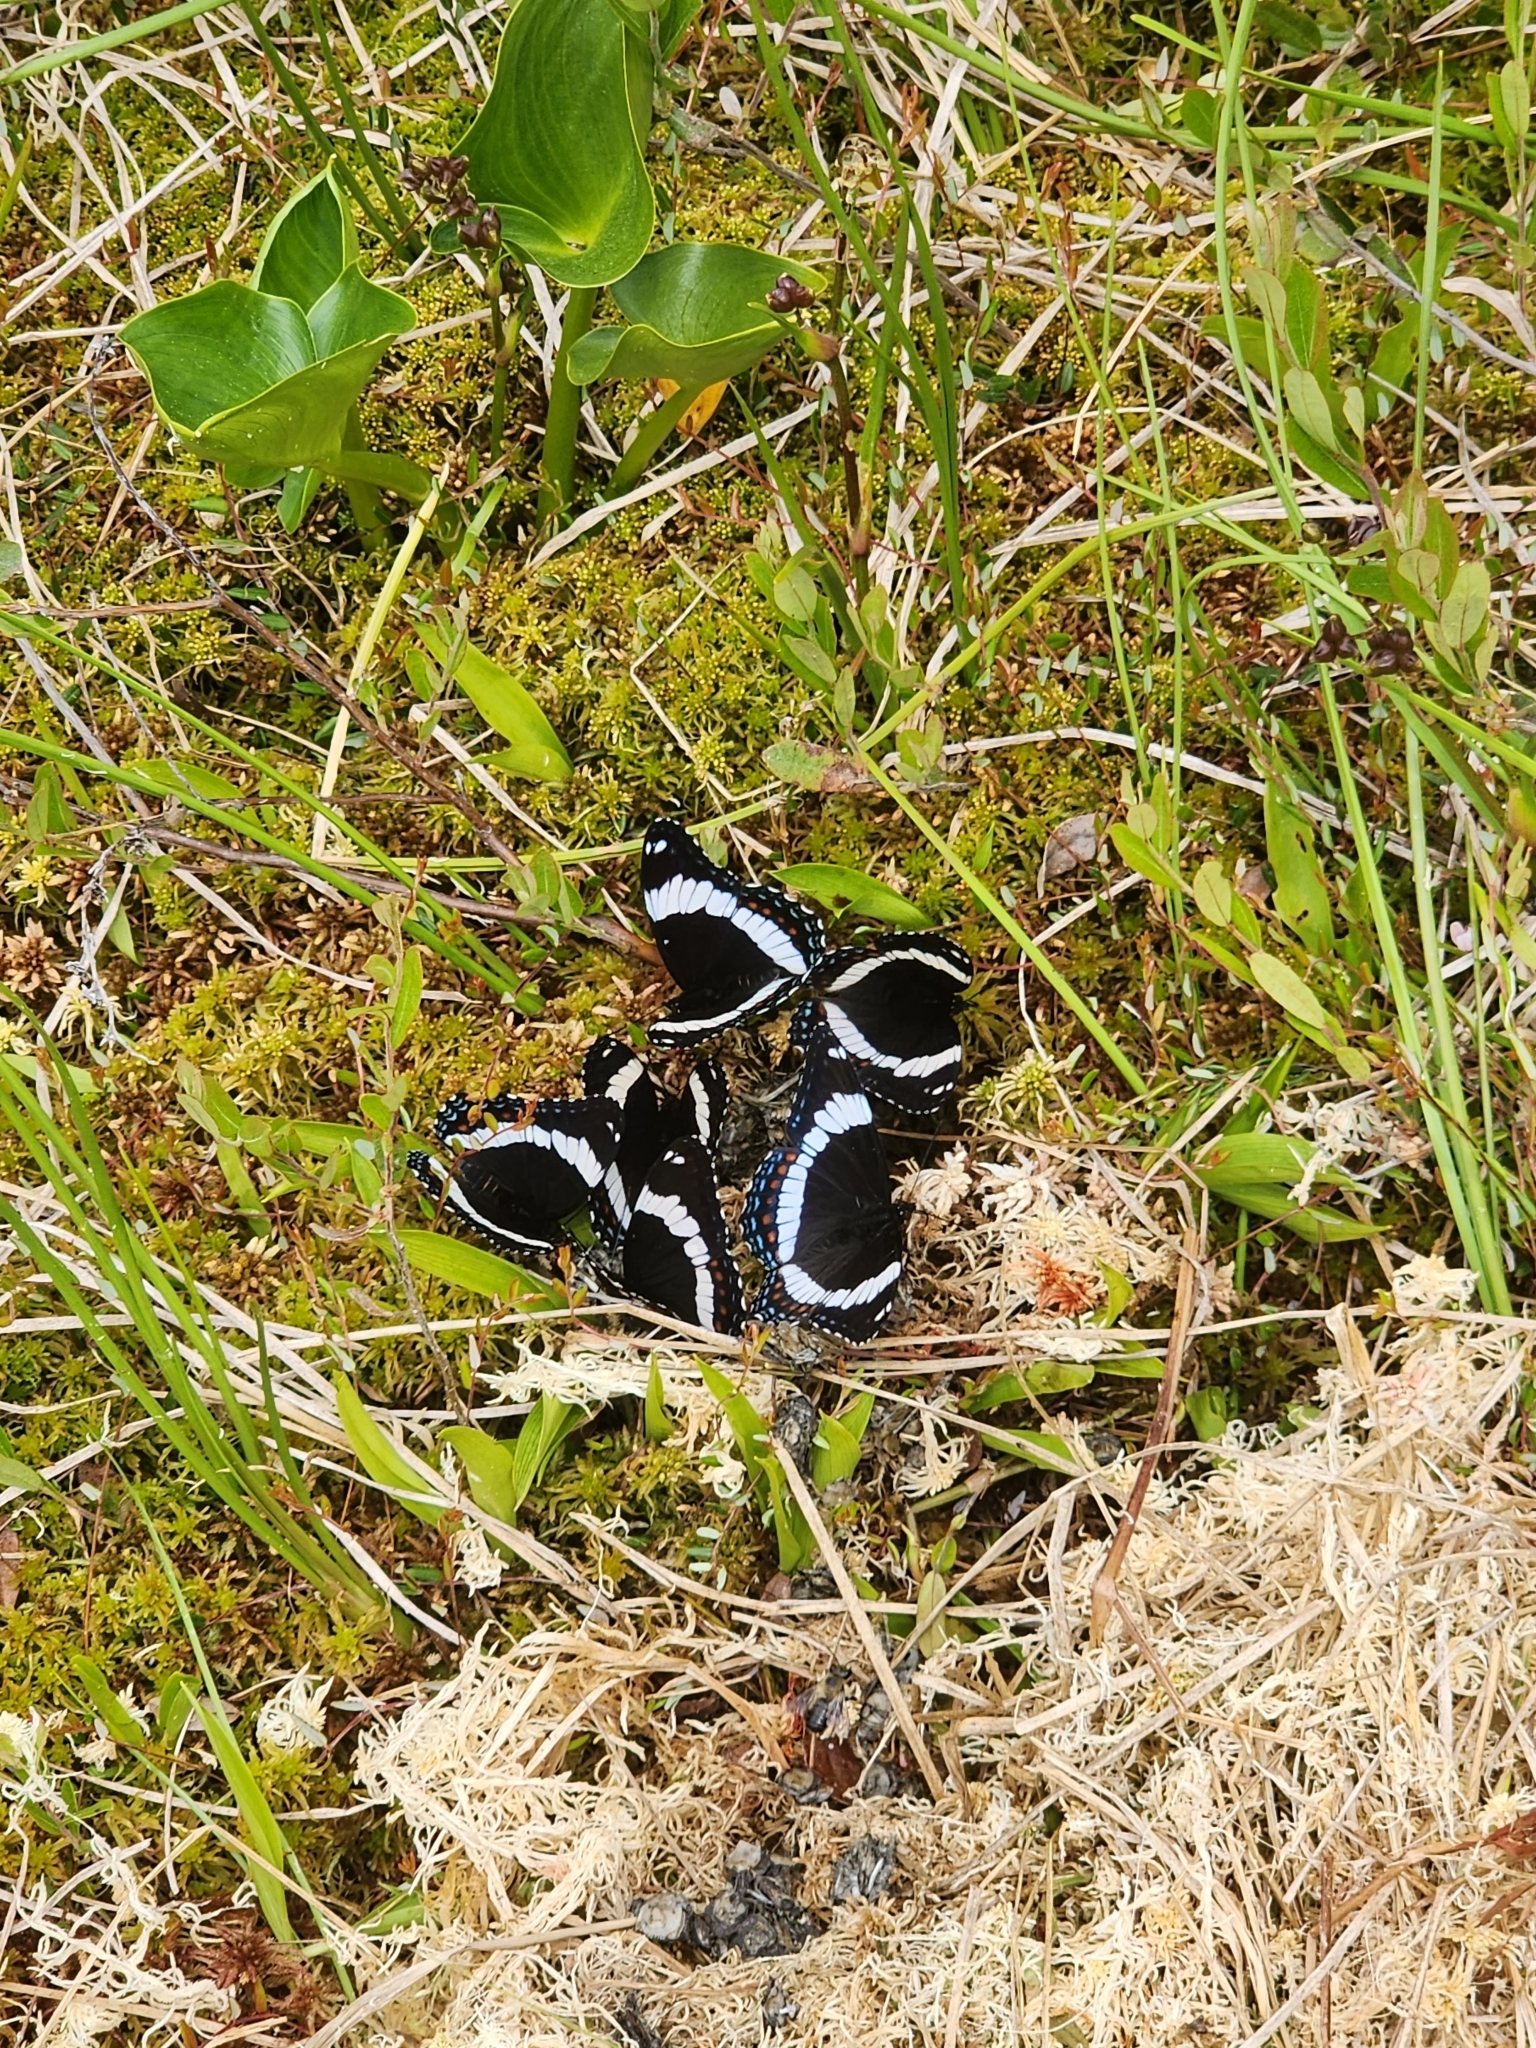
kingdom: Animalia
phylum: Arthropoda
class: Insecta
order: Lepidoptera
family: Nymphalidae
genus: Limenitis
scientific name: Limenitis arthemis
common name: Red-spotted admiral
